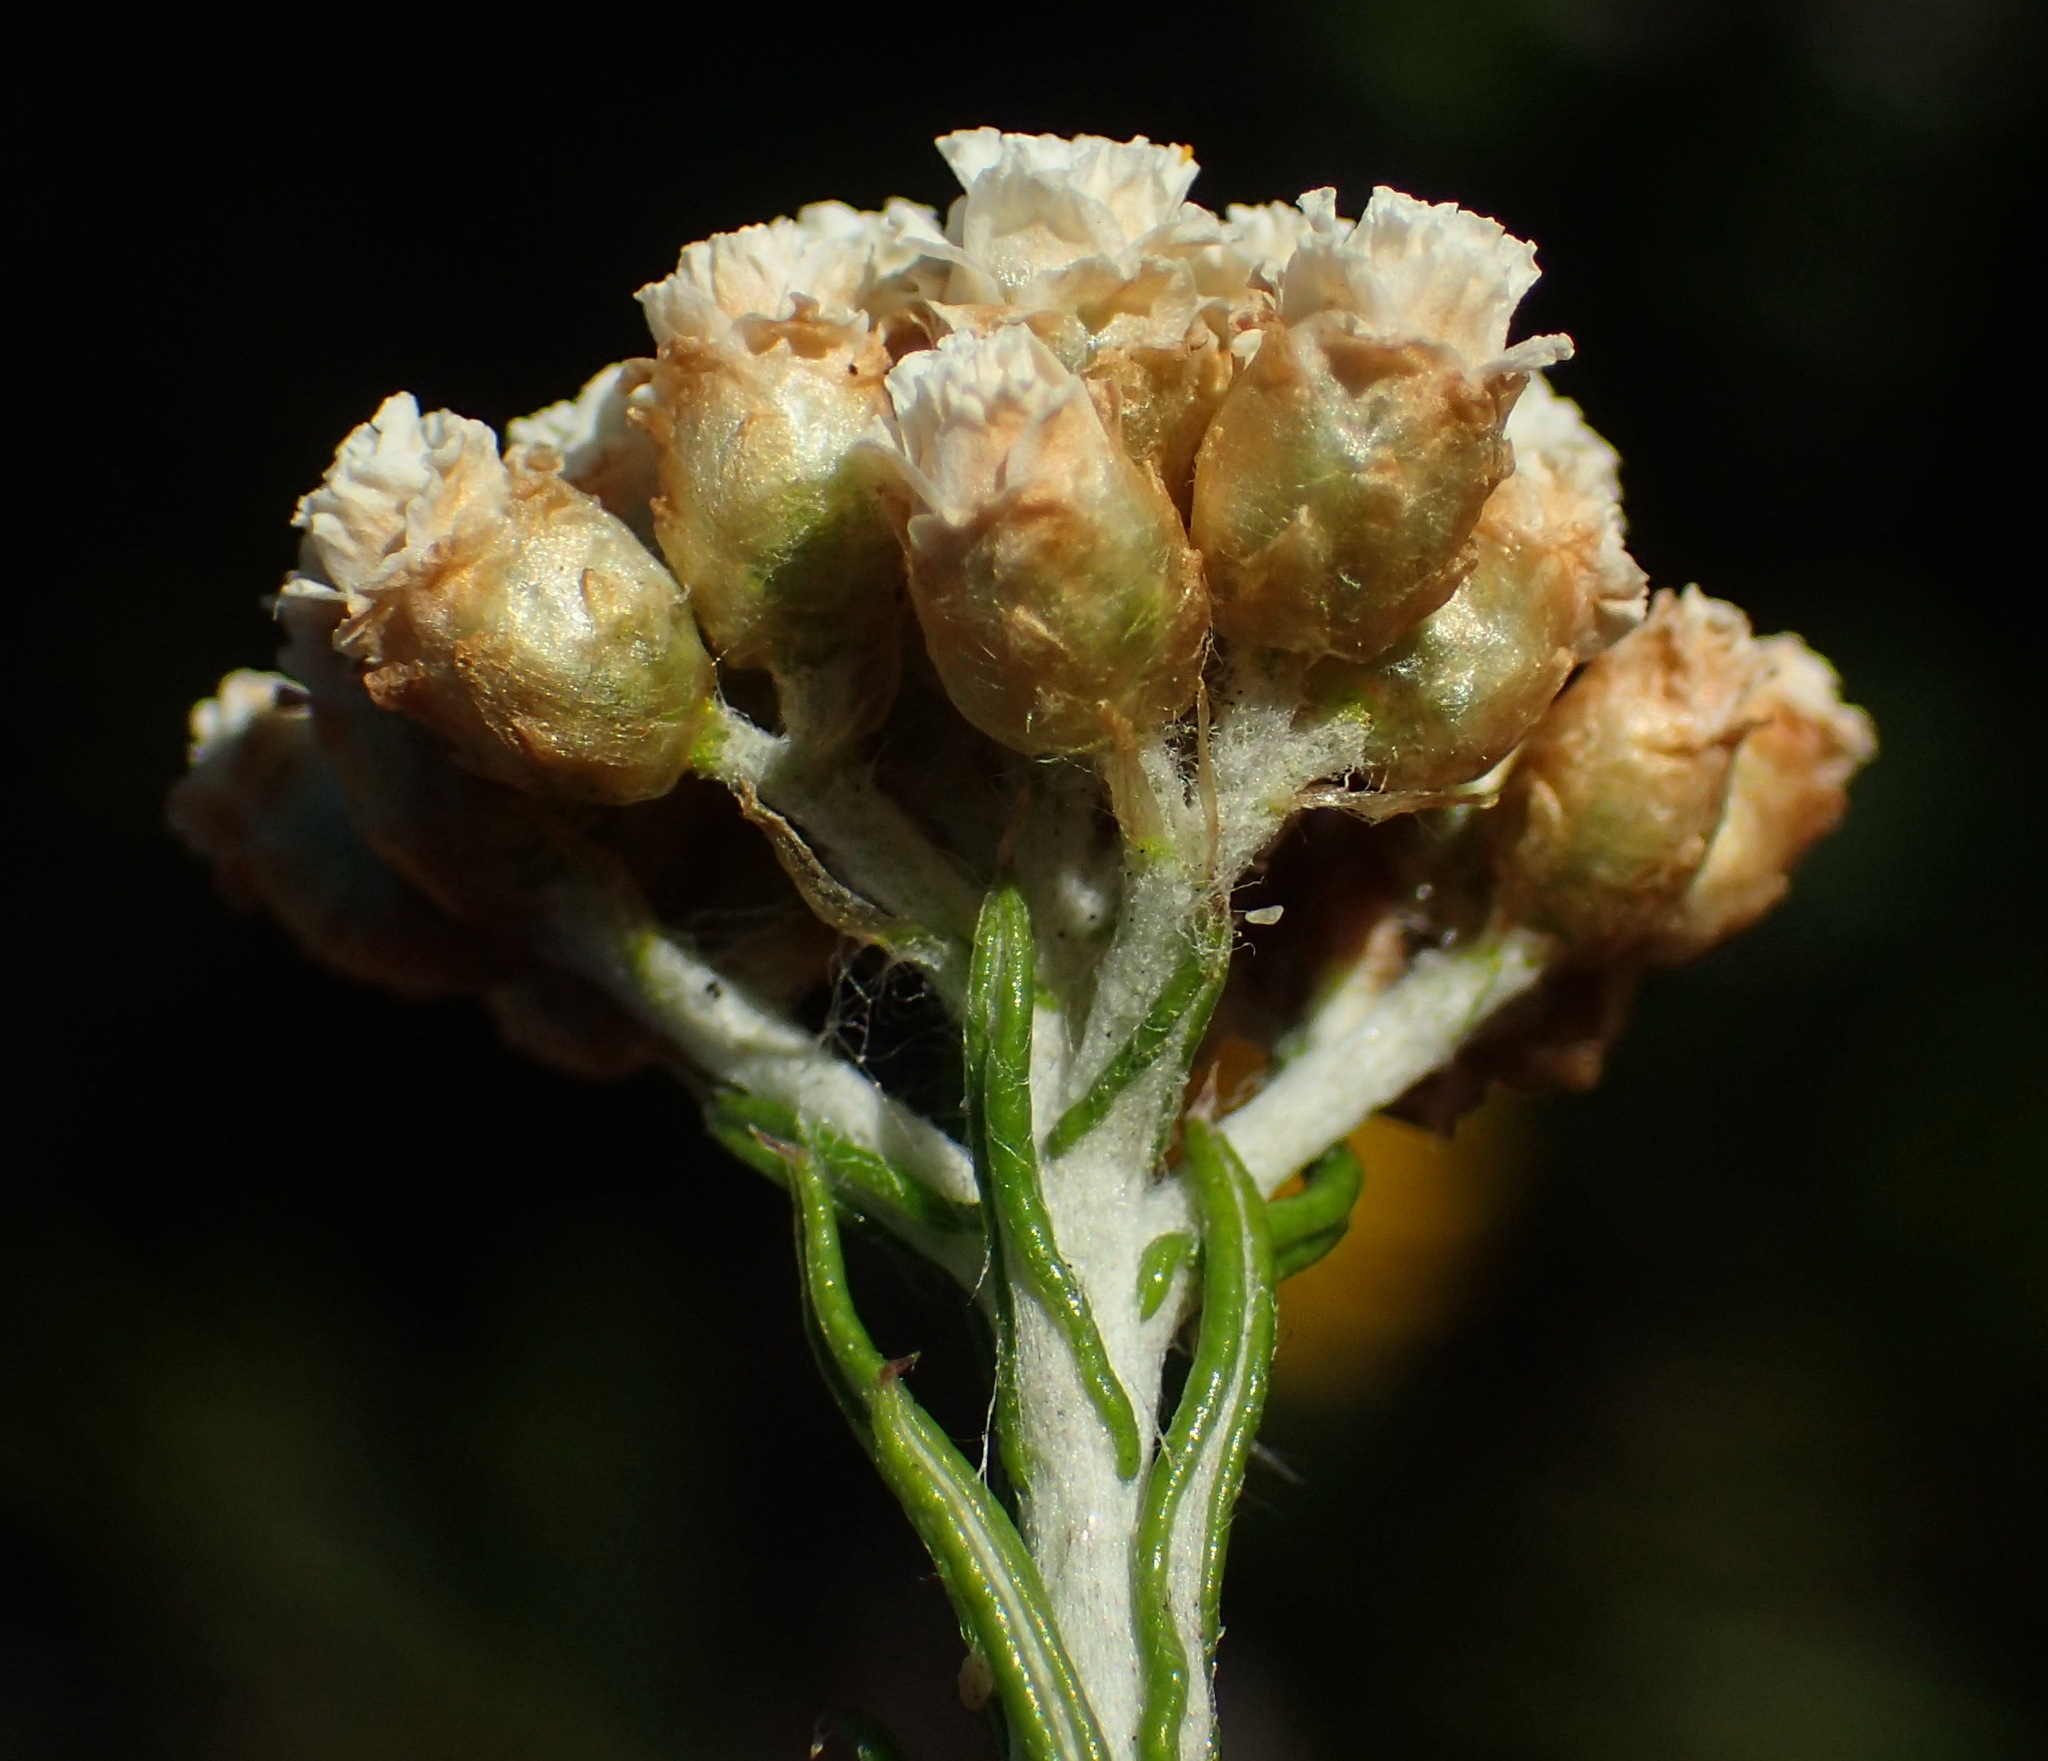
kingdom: Plantae
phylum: Tracheophyta
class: Magnoliopsida
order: Asterales
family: Asteraceae
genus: Helichrysum
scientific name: Helichrysum teretifolium
